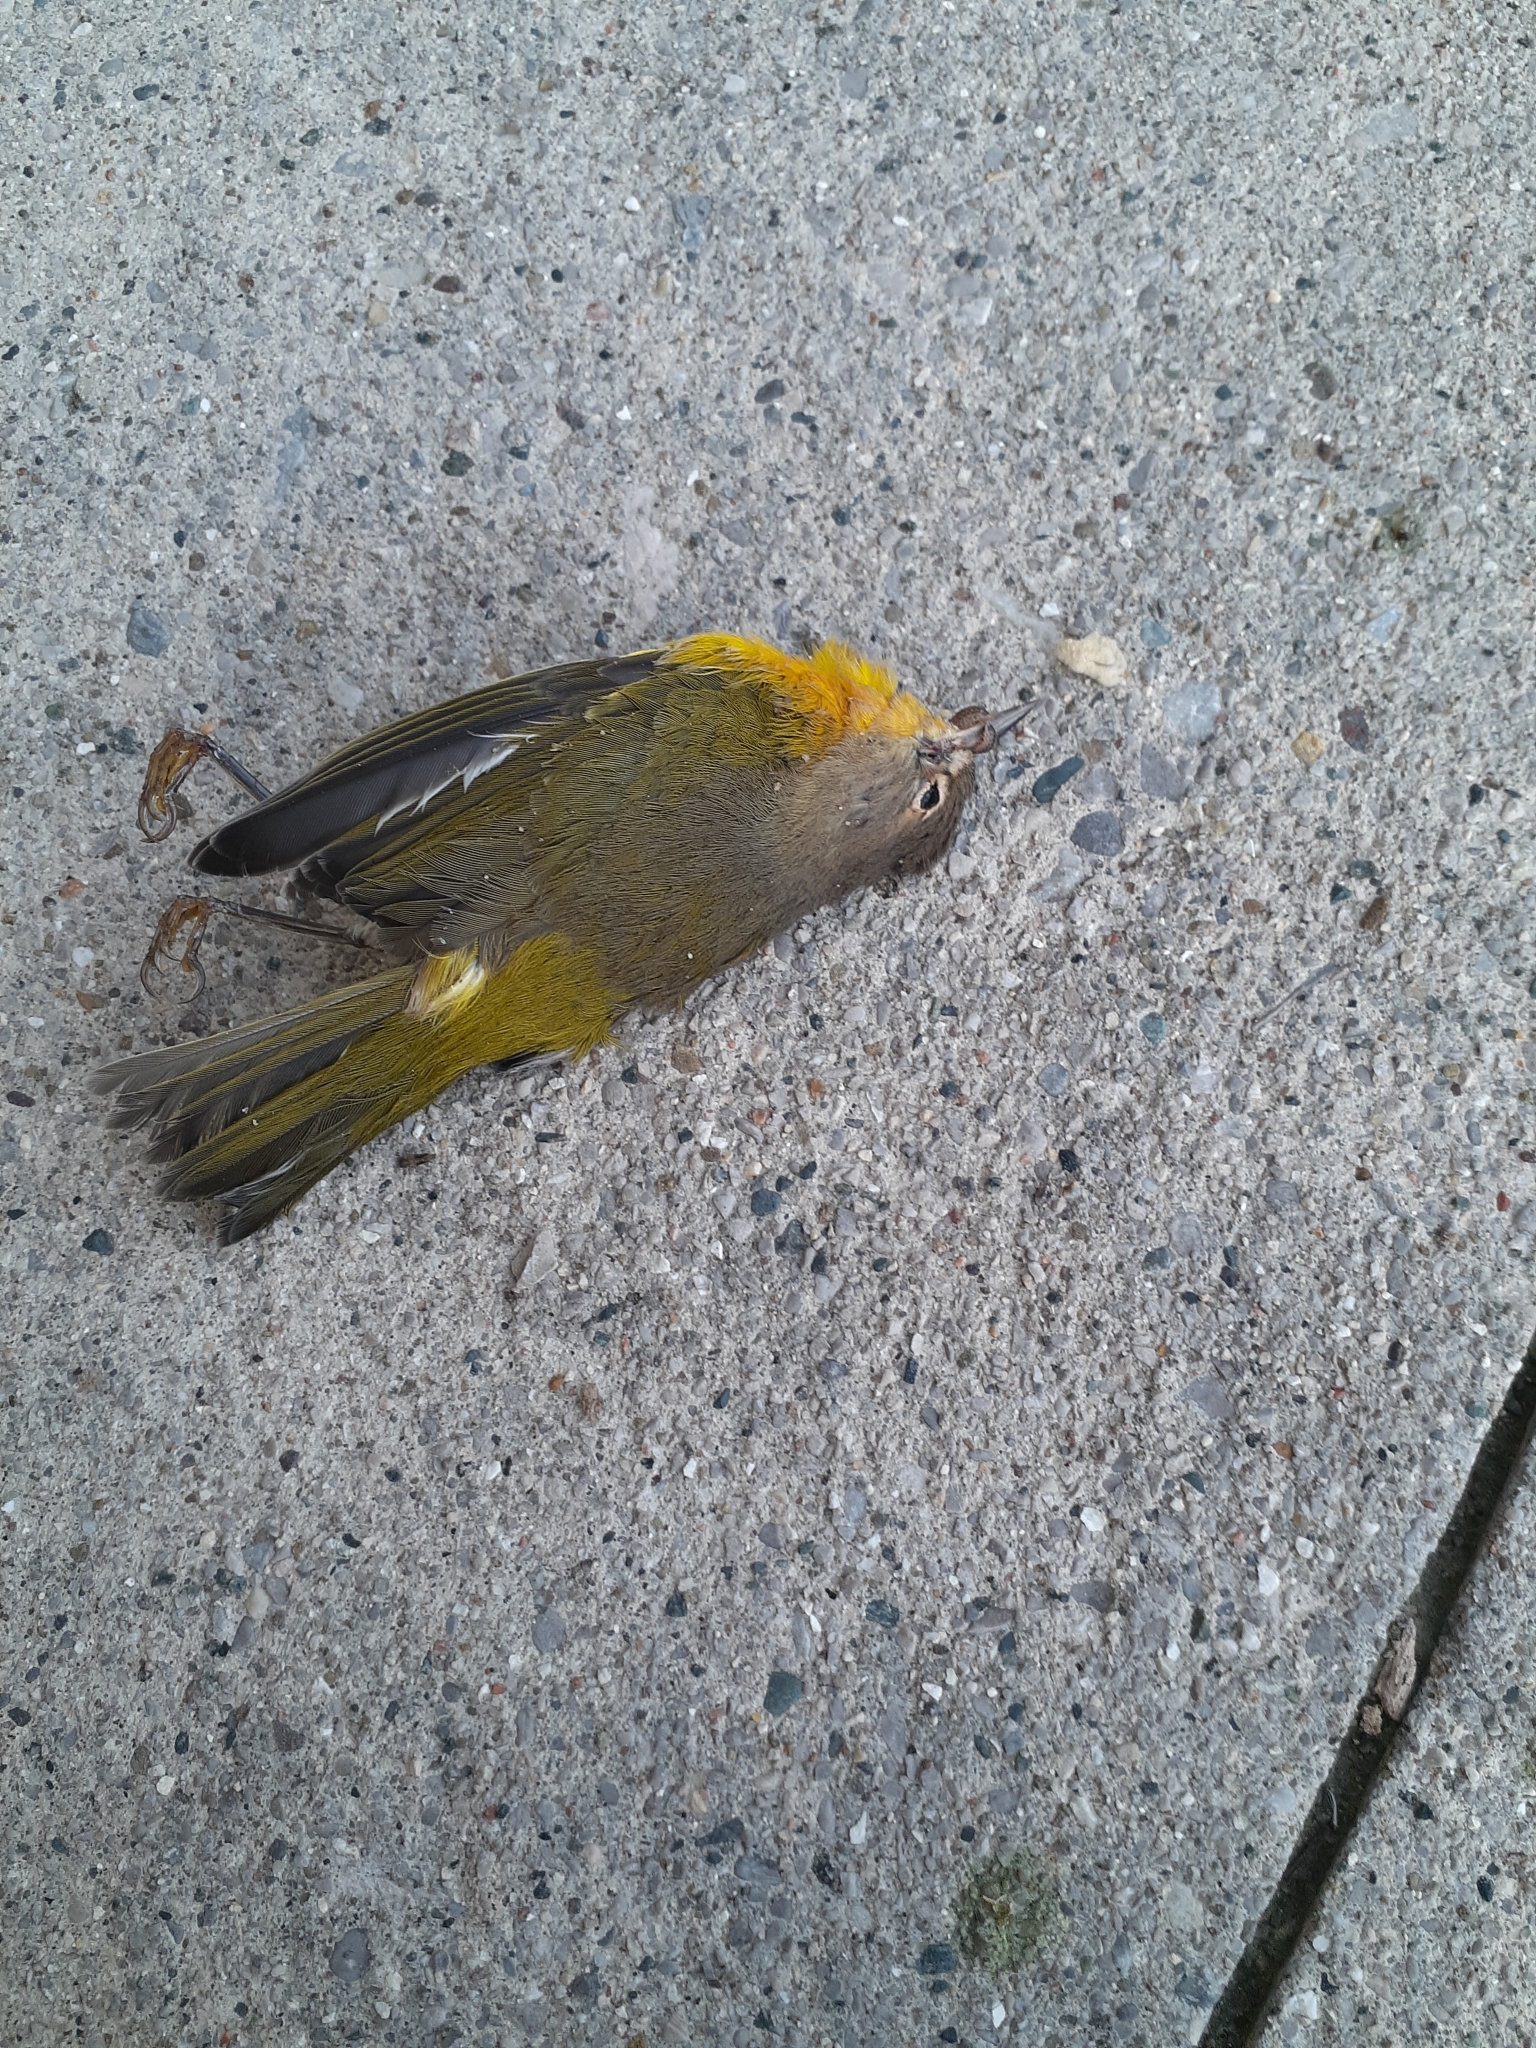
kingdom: Animalia
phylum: Chordata
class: Aves
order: Passeriformes
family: Parulidae
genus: Leiothlypis
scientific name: Leiothlypis ruficapilla
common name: Nashville warbler
